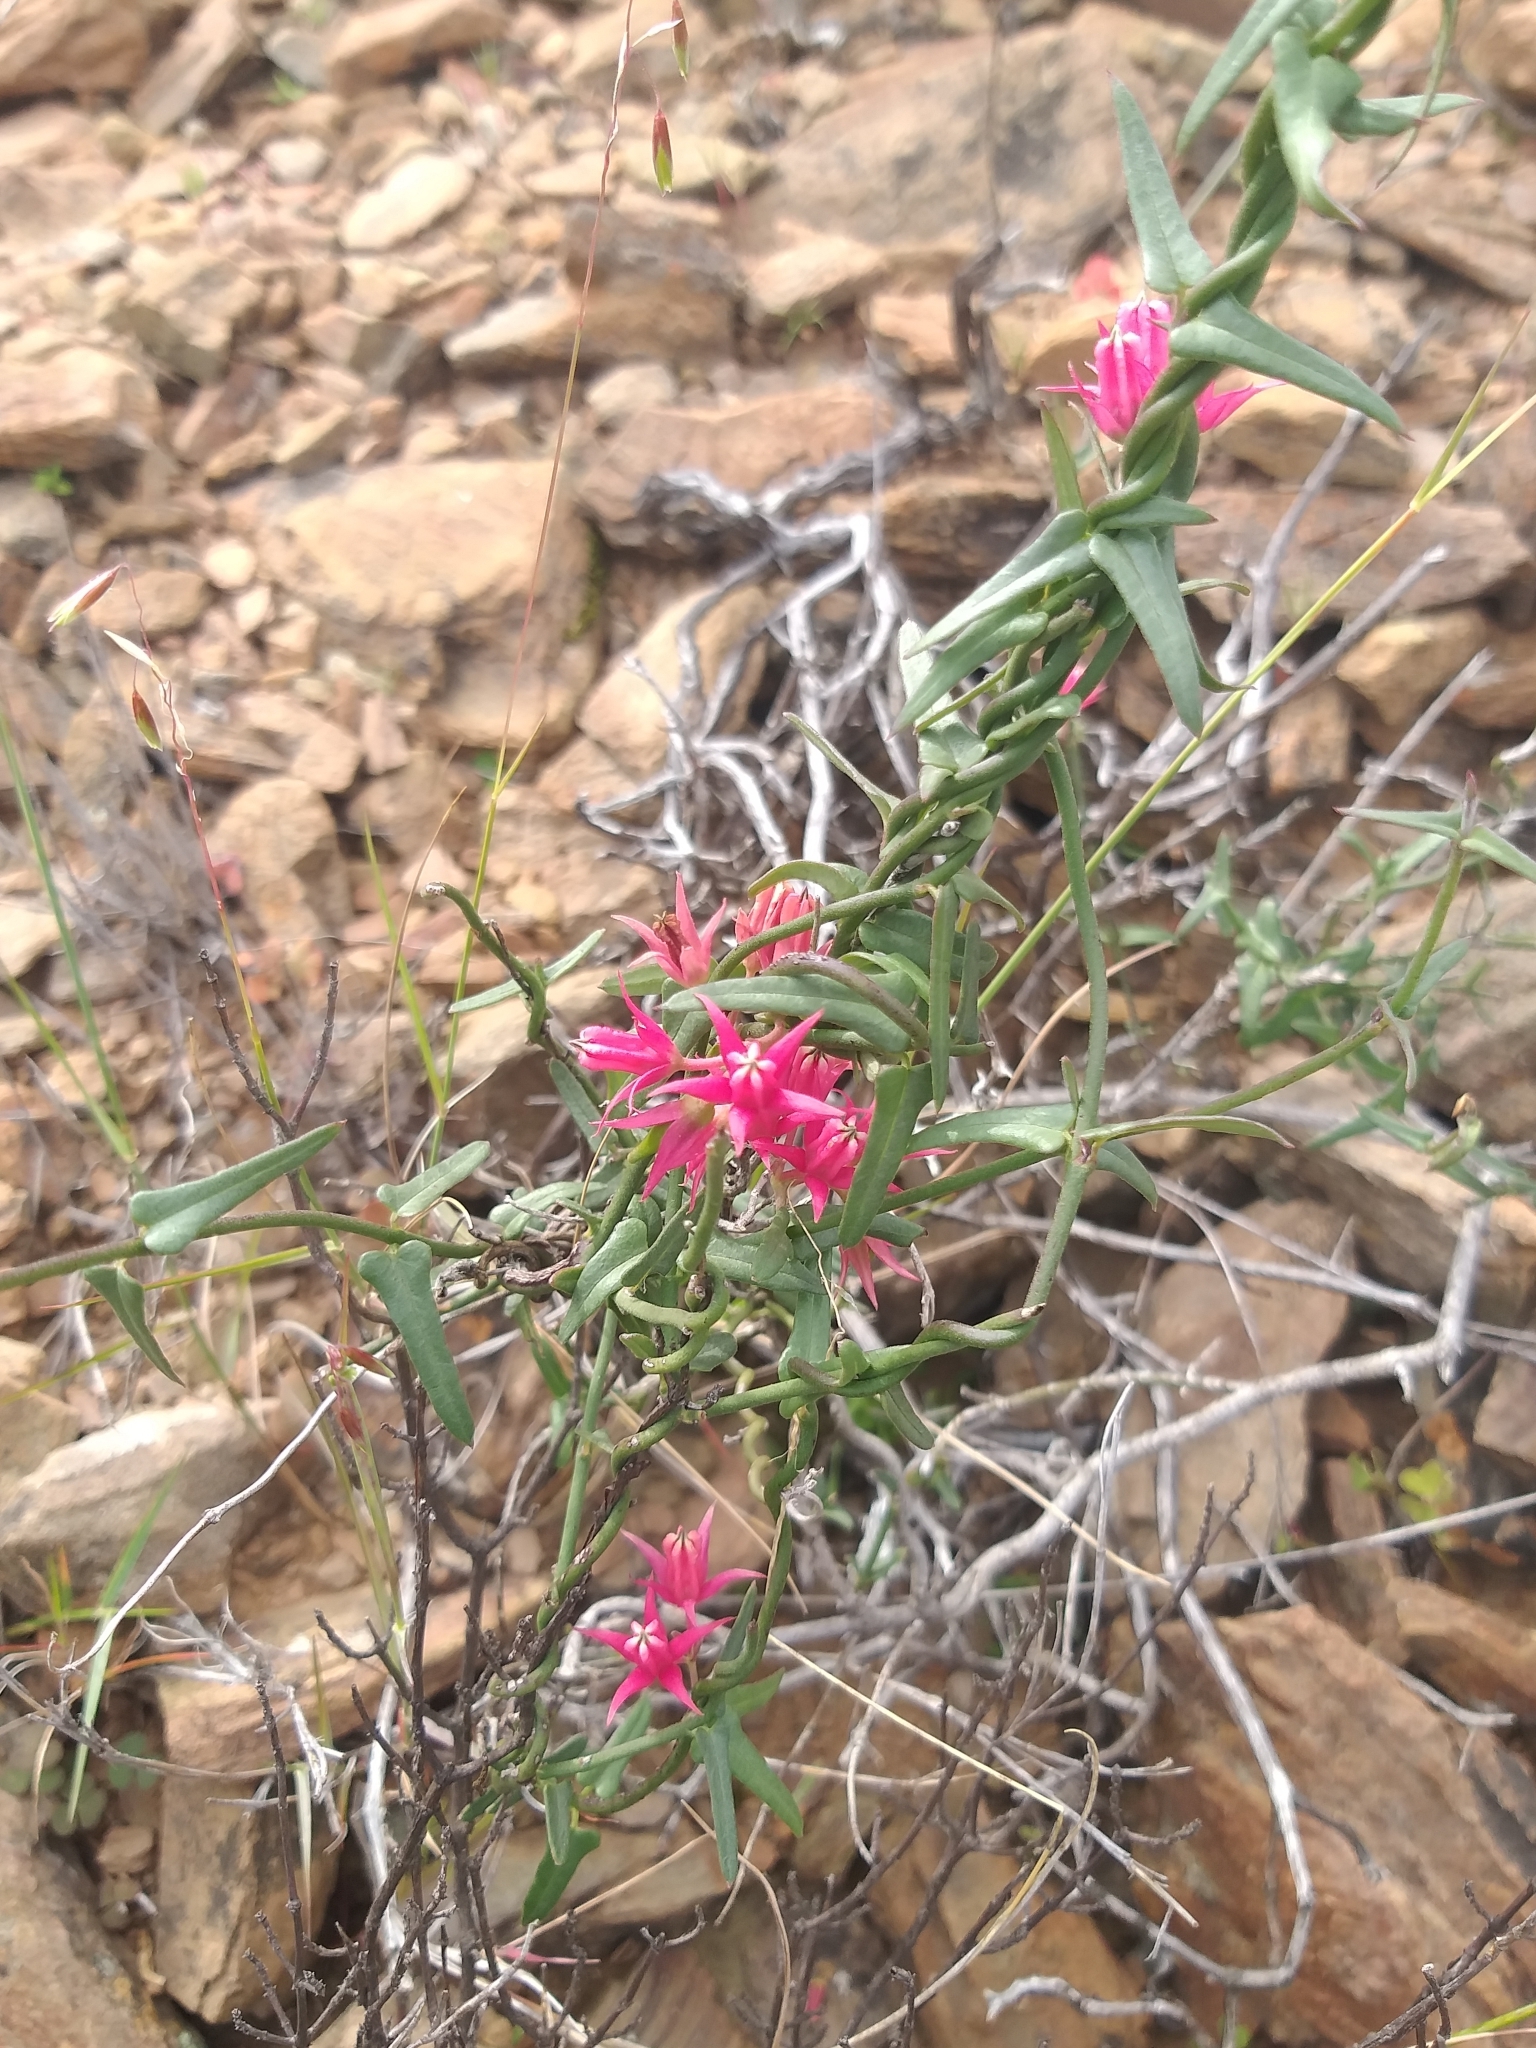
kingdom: Plantae
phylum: Tracheophyta
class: Magnoliopsida
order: Gentianales
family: Apocynaceae
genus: Microloma
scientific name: Microloma sagittatum
